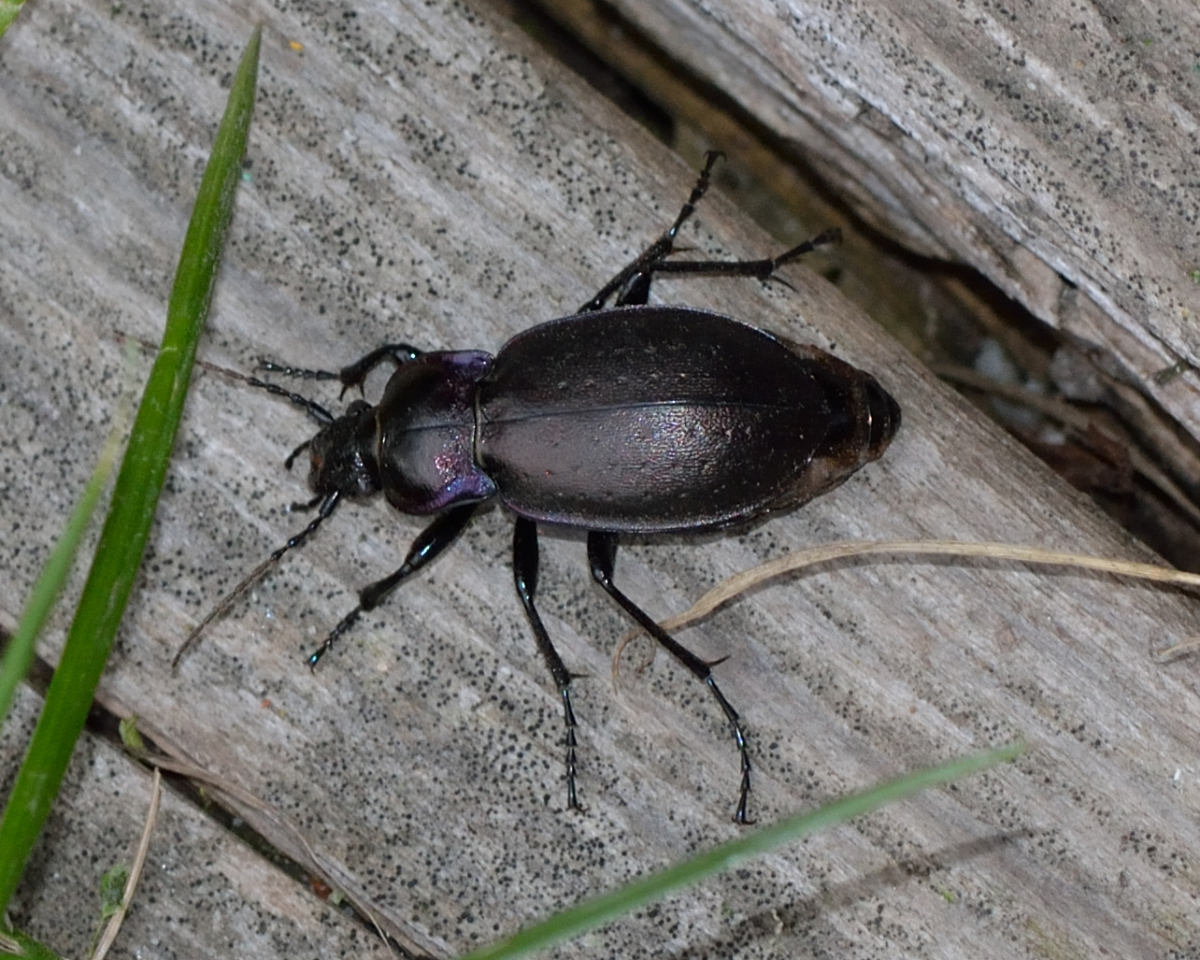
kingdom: Animalia
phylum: Arthropoda
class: Insecta
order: Coleoptera
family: Carabidae
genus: Carabus
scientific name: Carabus nemoralis
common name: European ground beetle
